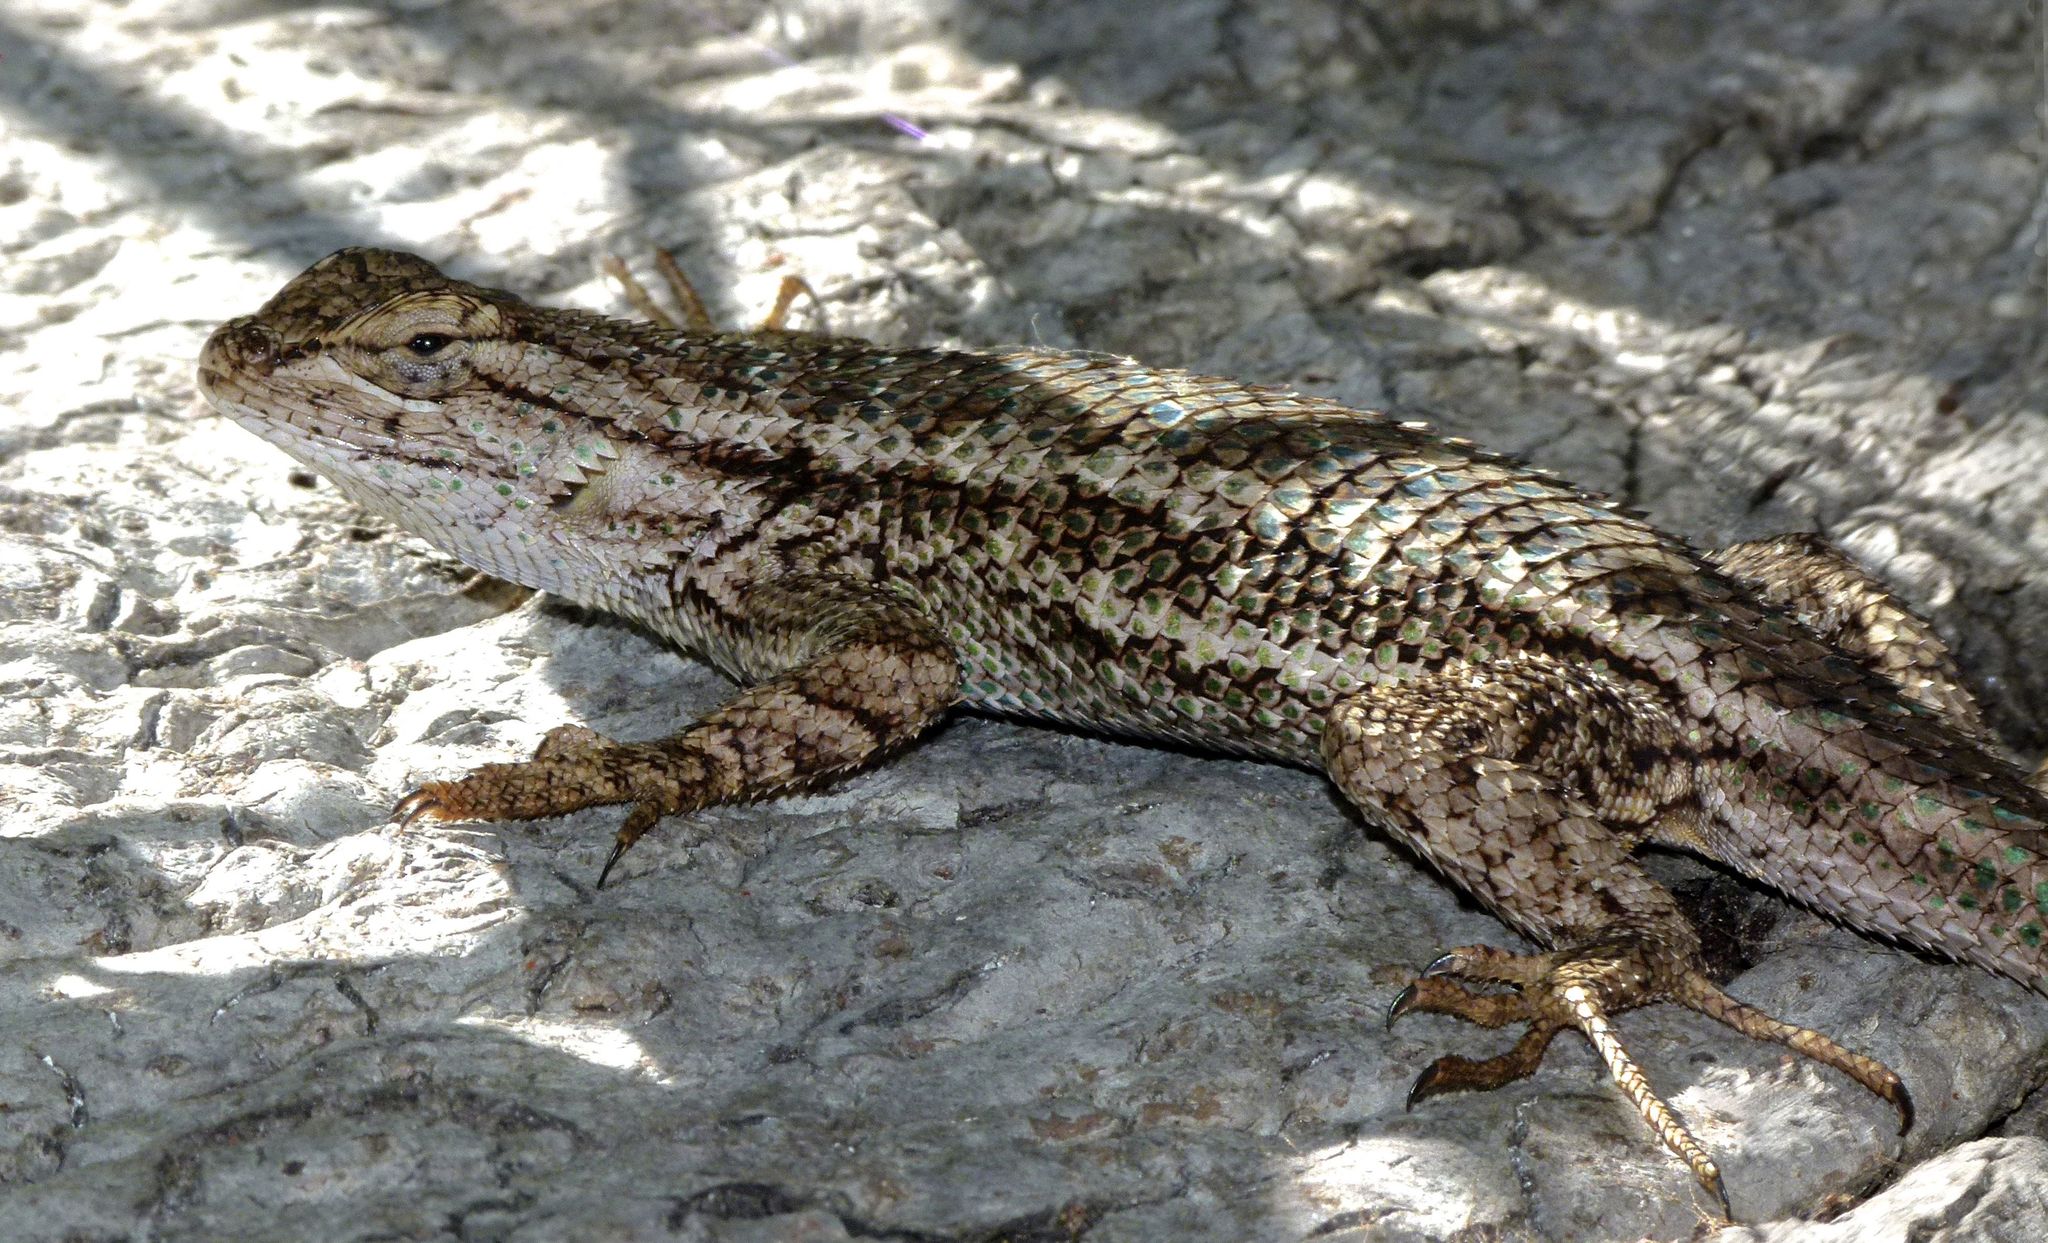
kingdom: Animalia
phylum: Chordata
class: Squamata
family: Phrynosomatidae
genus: Sceloporus
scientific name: Sceloporus occidentalis
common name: Western fence lizard
